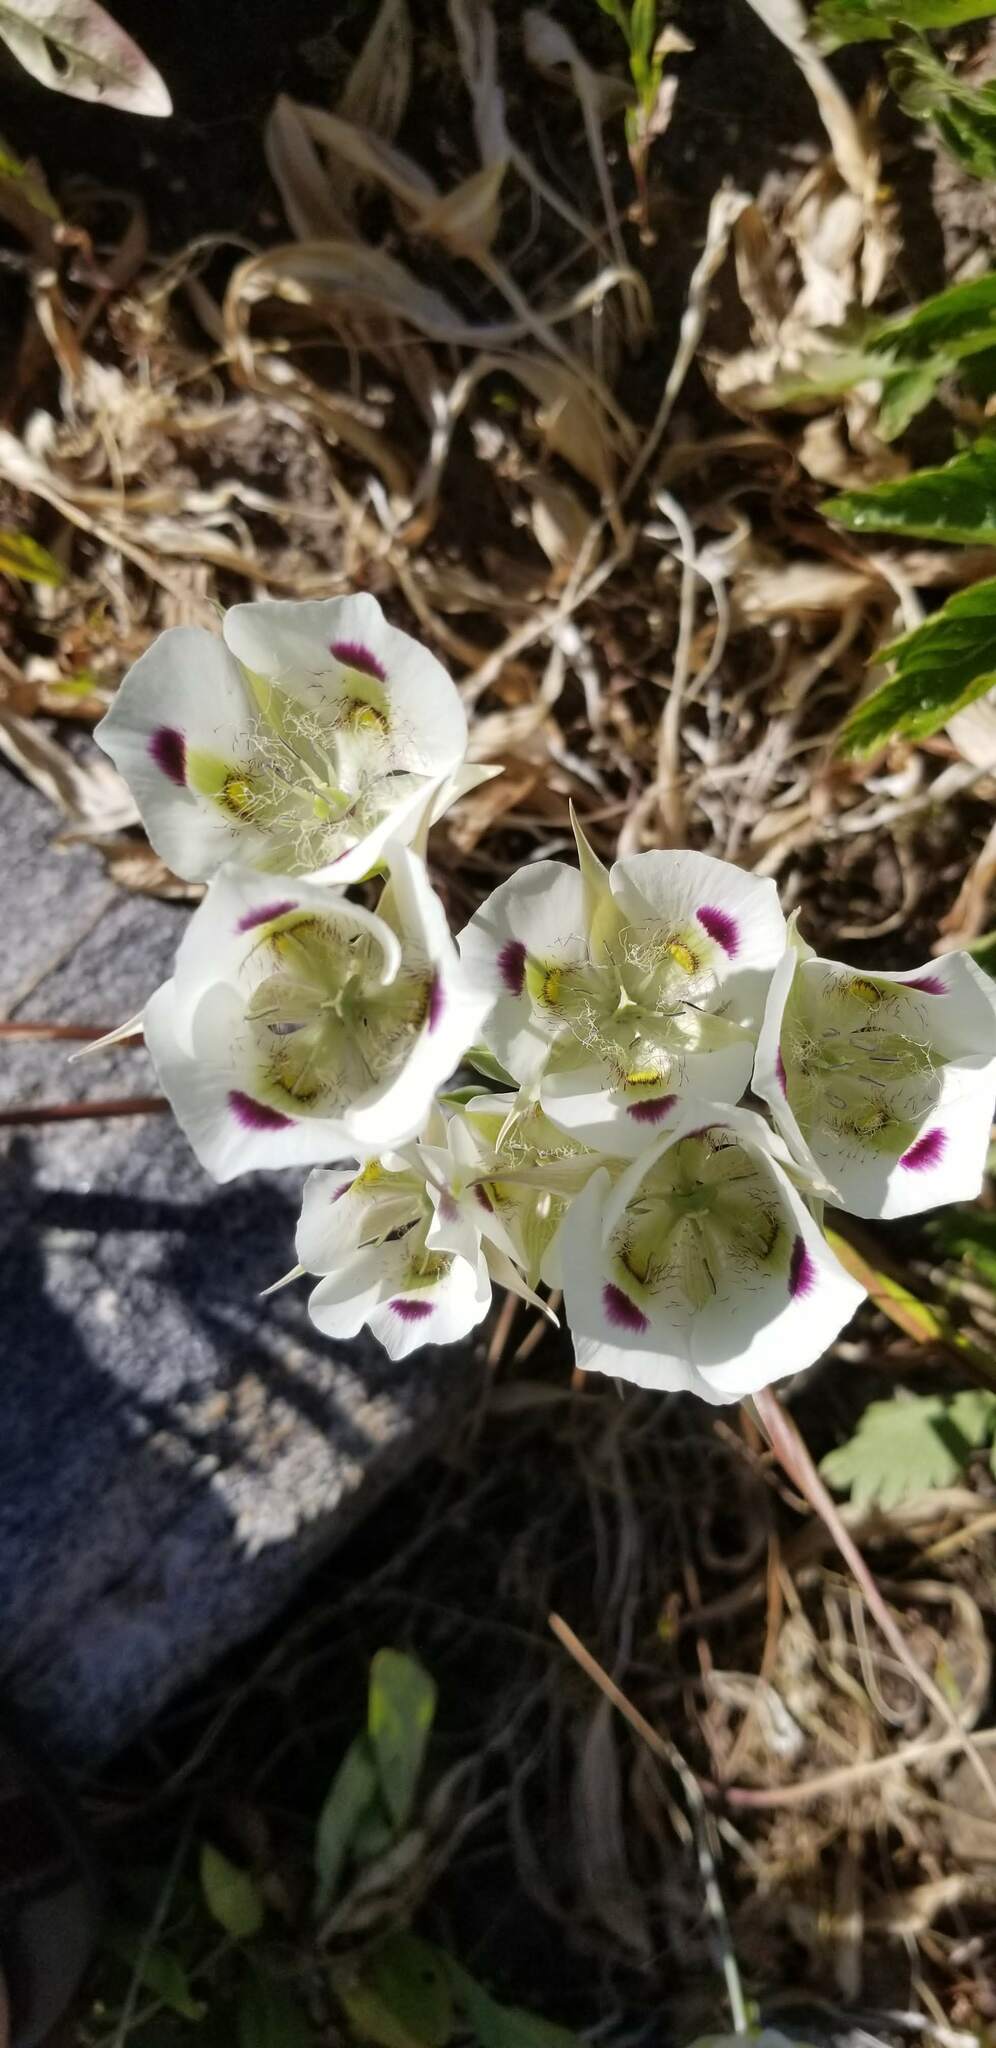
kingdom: Plantae
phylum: Tracheophyta
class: Liliopsida
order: Liliales
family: Liliaceae
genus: Calochortus
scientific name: Calochortus eurycarpus
